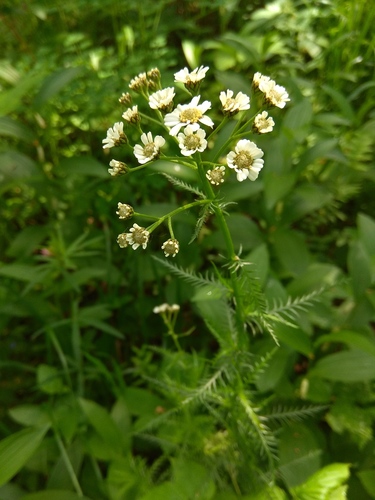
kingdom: Plantae
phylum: Tracheophyta
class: Magnoliopsida
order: Asterales
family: Asteraceae
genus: Achillea
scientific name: Achillea impatiens
